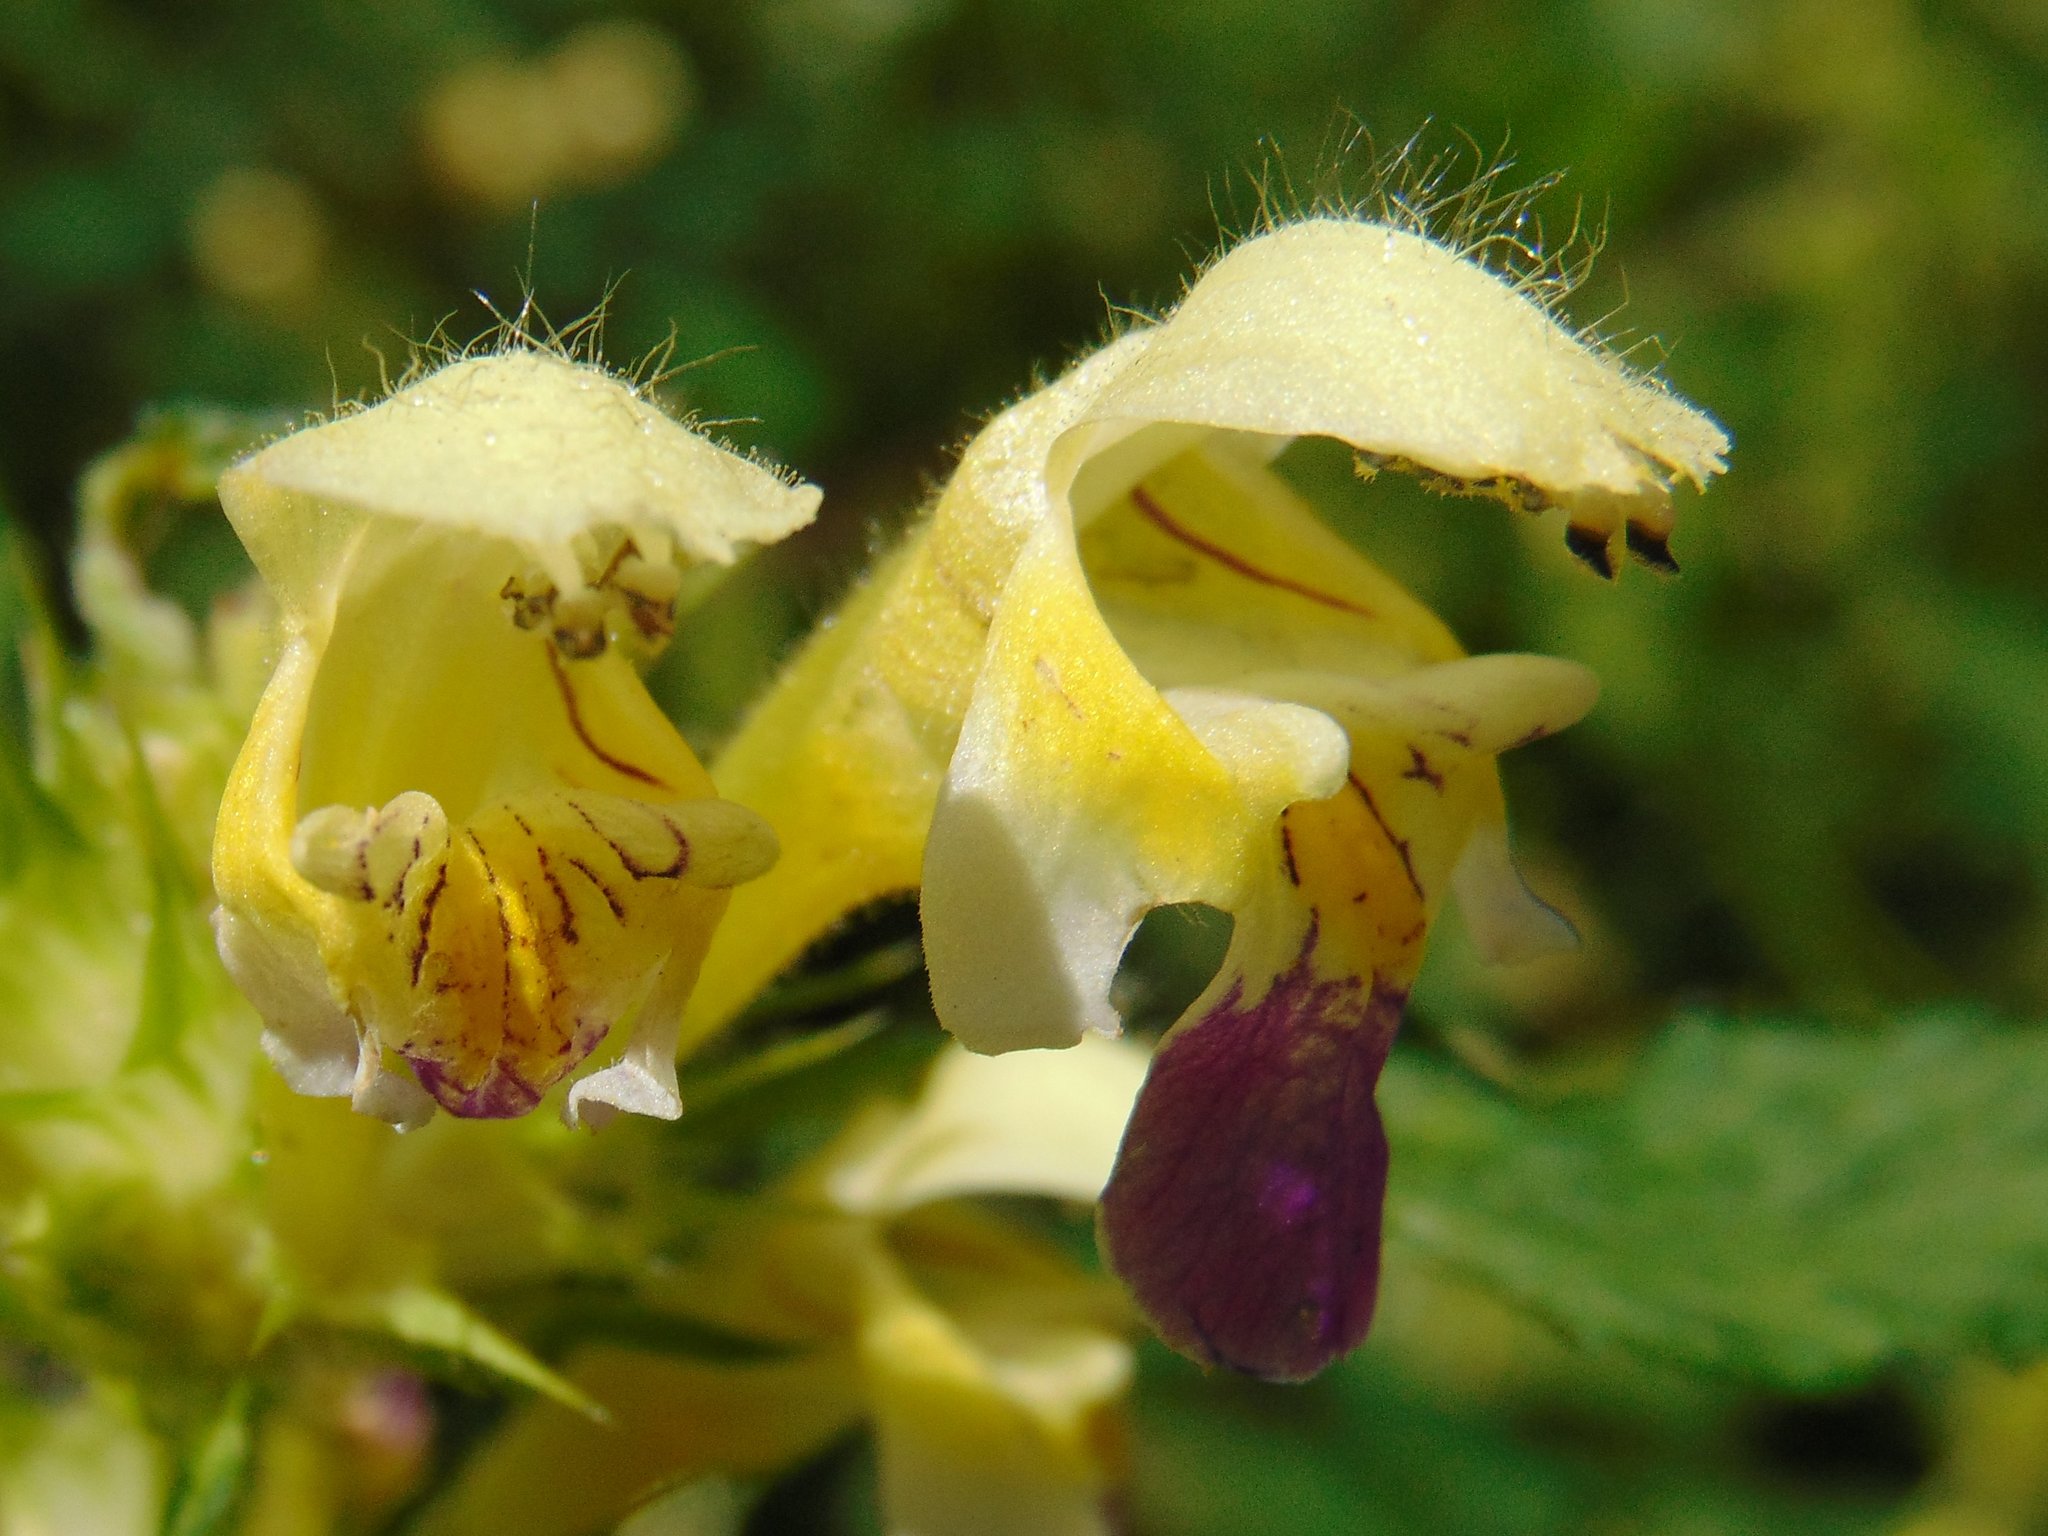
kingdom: Plantae
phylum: Tracheophyta
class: Magnoliopsida
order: Lamiales
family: Lamiaceae
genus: Galeopsis
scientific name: Galeopsis speciosa
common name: Large-flowered hemp-nettle
